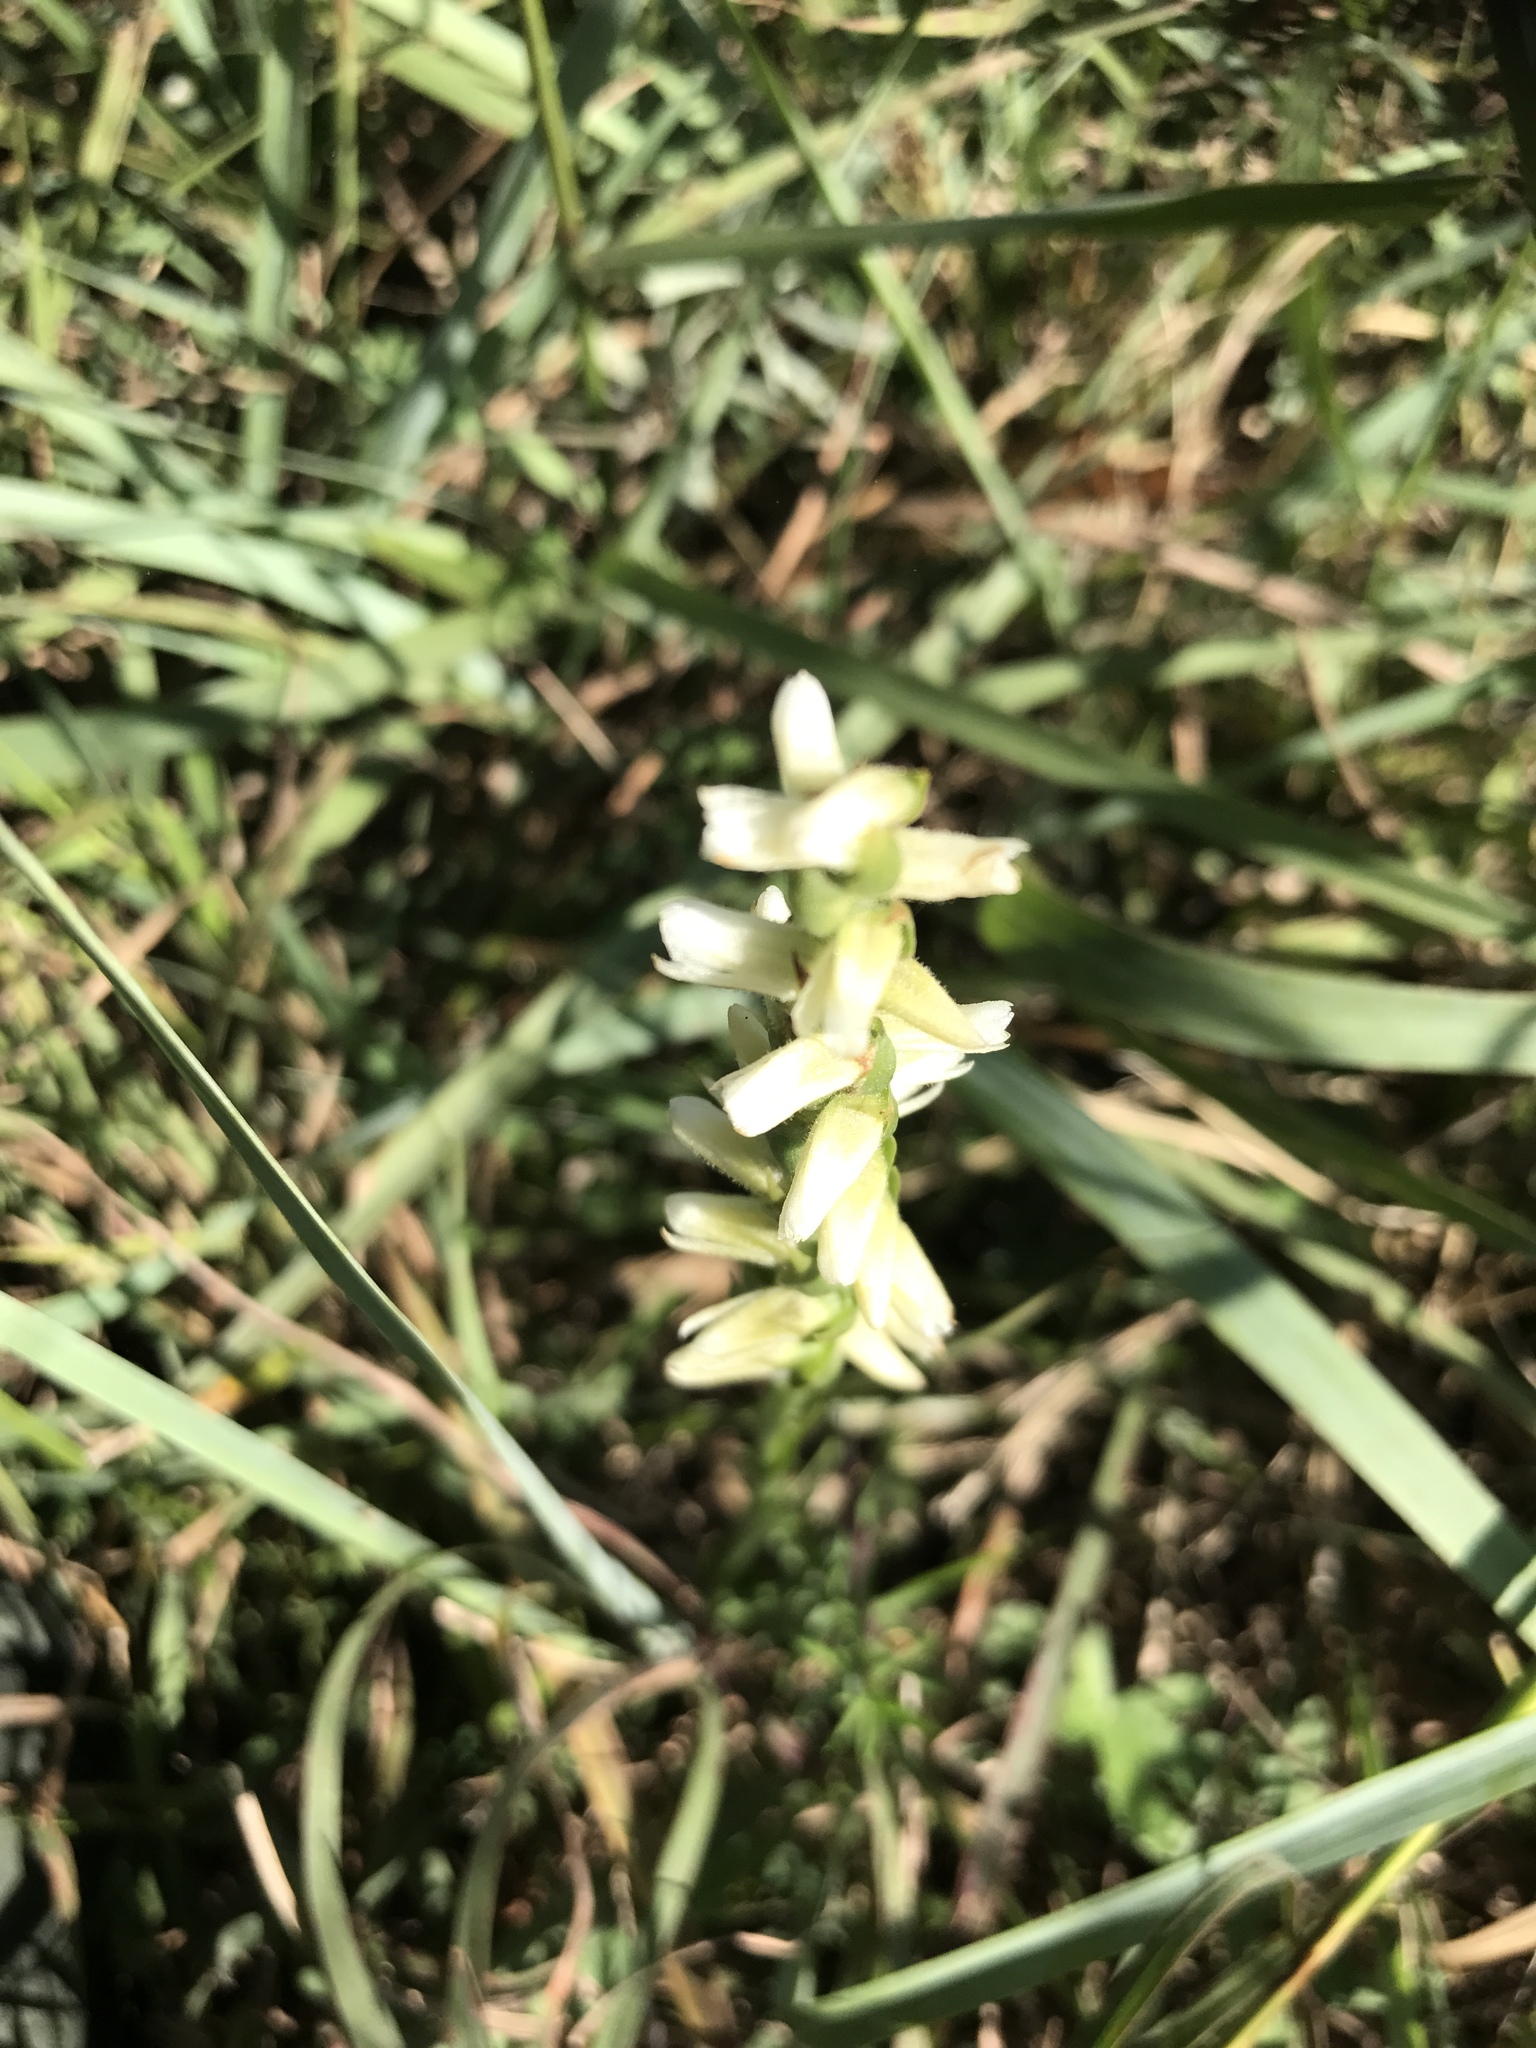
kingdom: Plantae
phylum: Tracheophyta
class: Liliopsida
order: Asparagales
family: Orchidaceae
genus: Spiranthes
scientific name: Spiranthes cernua
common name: Dropping ladies'-tresses
